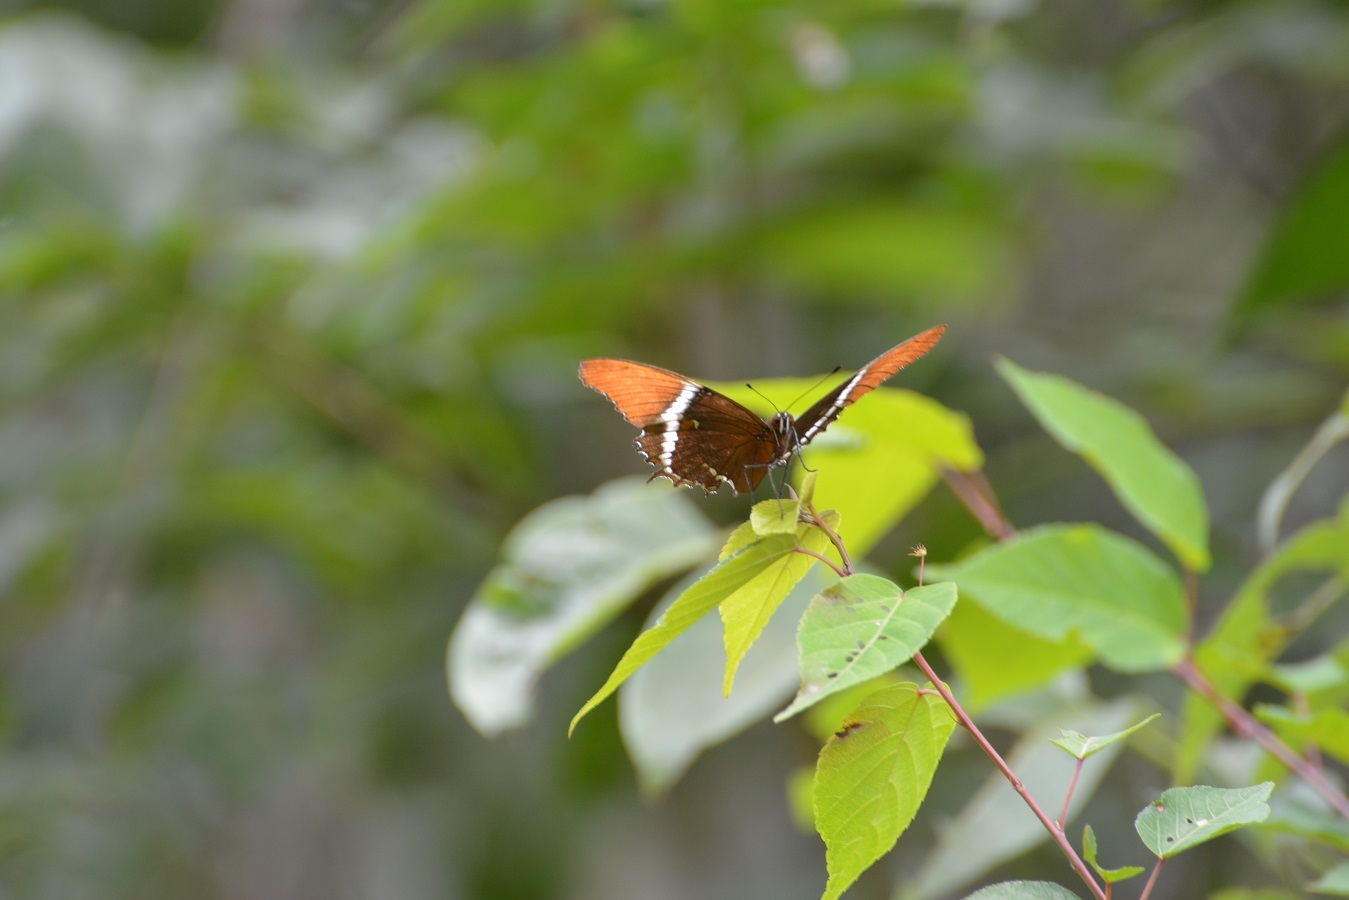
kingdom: Animalia
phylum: Arthropoda
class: Insecta
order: Lepidoptera
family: Nymphalidae
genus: Siproeta
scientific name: Siproeta epaphus
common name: Rusty-tipped page
